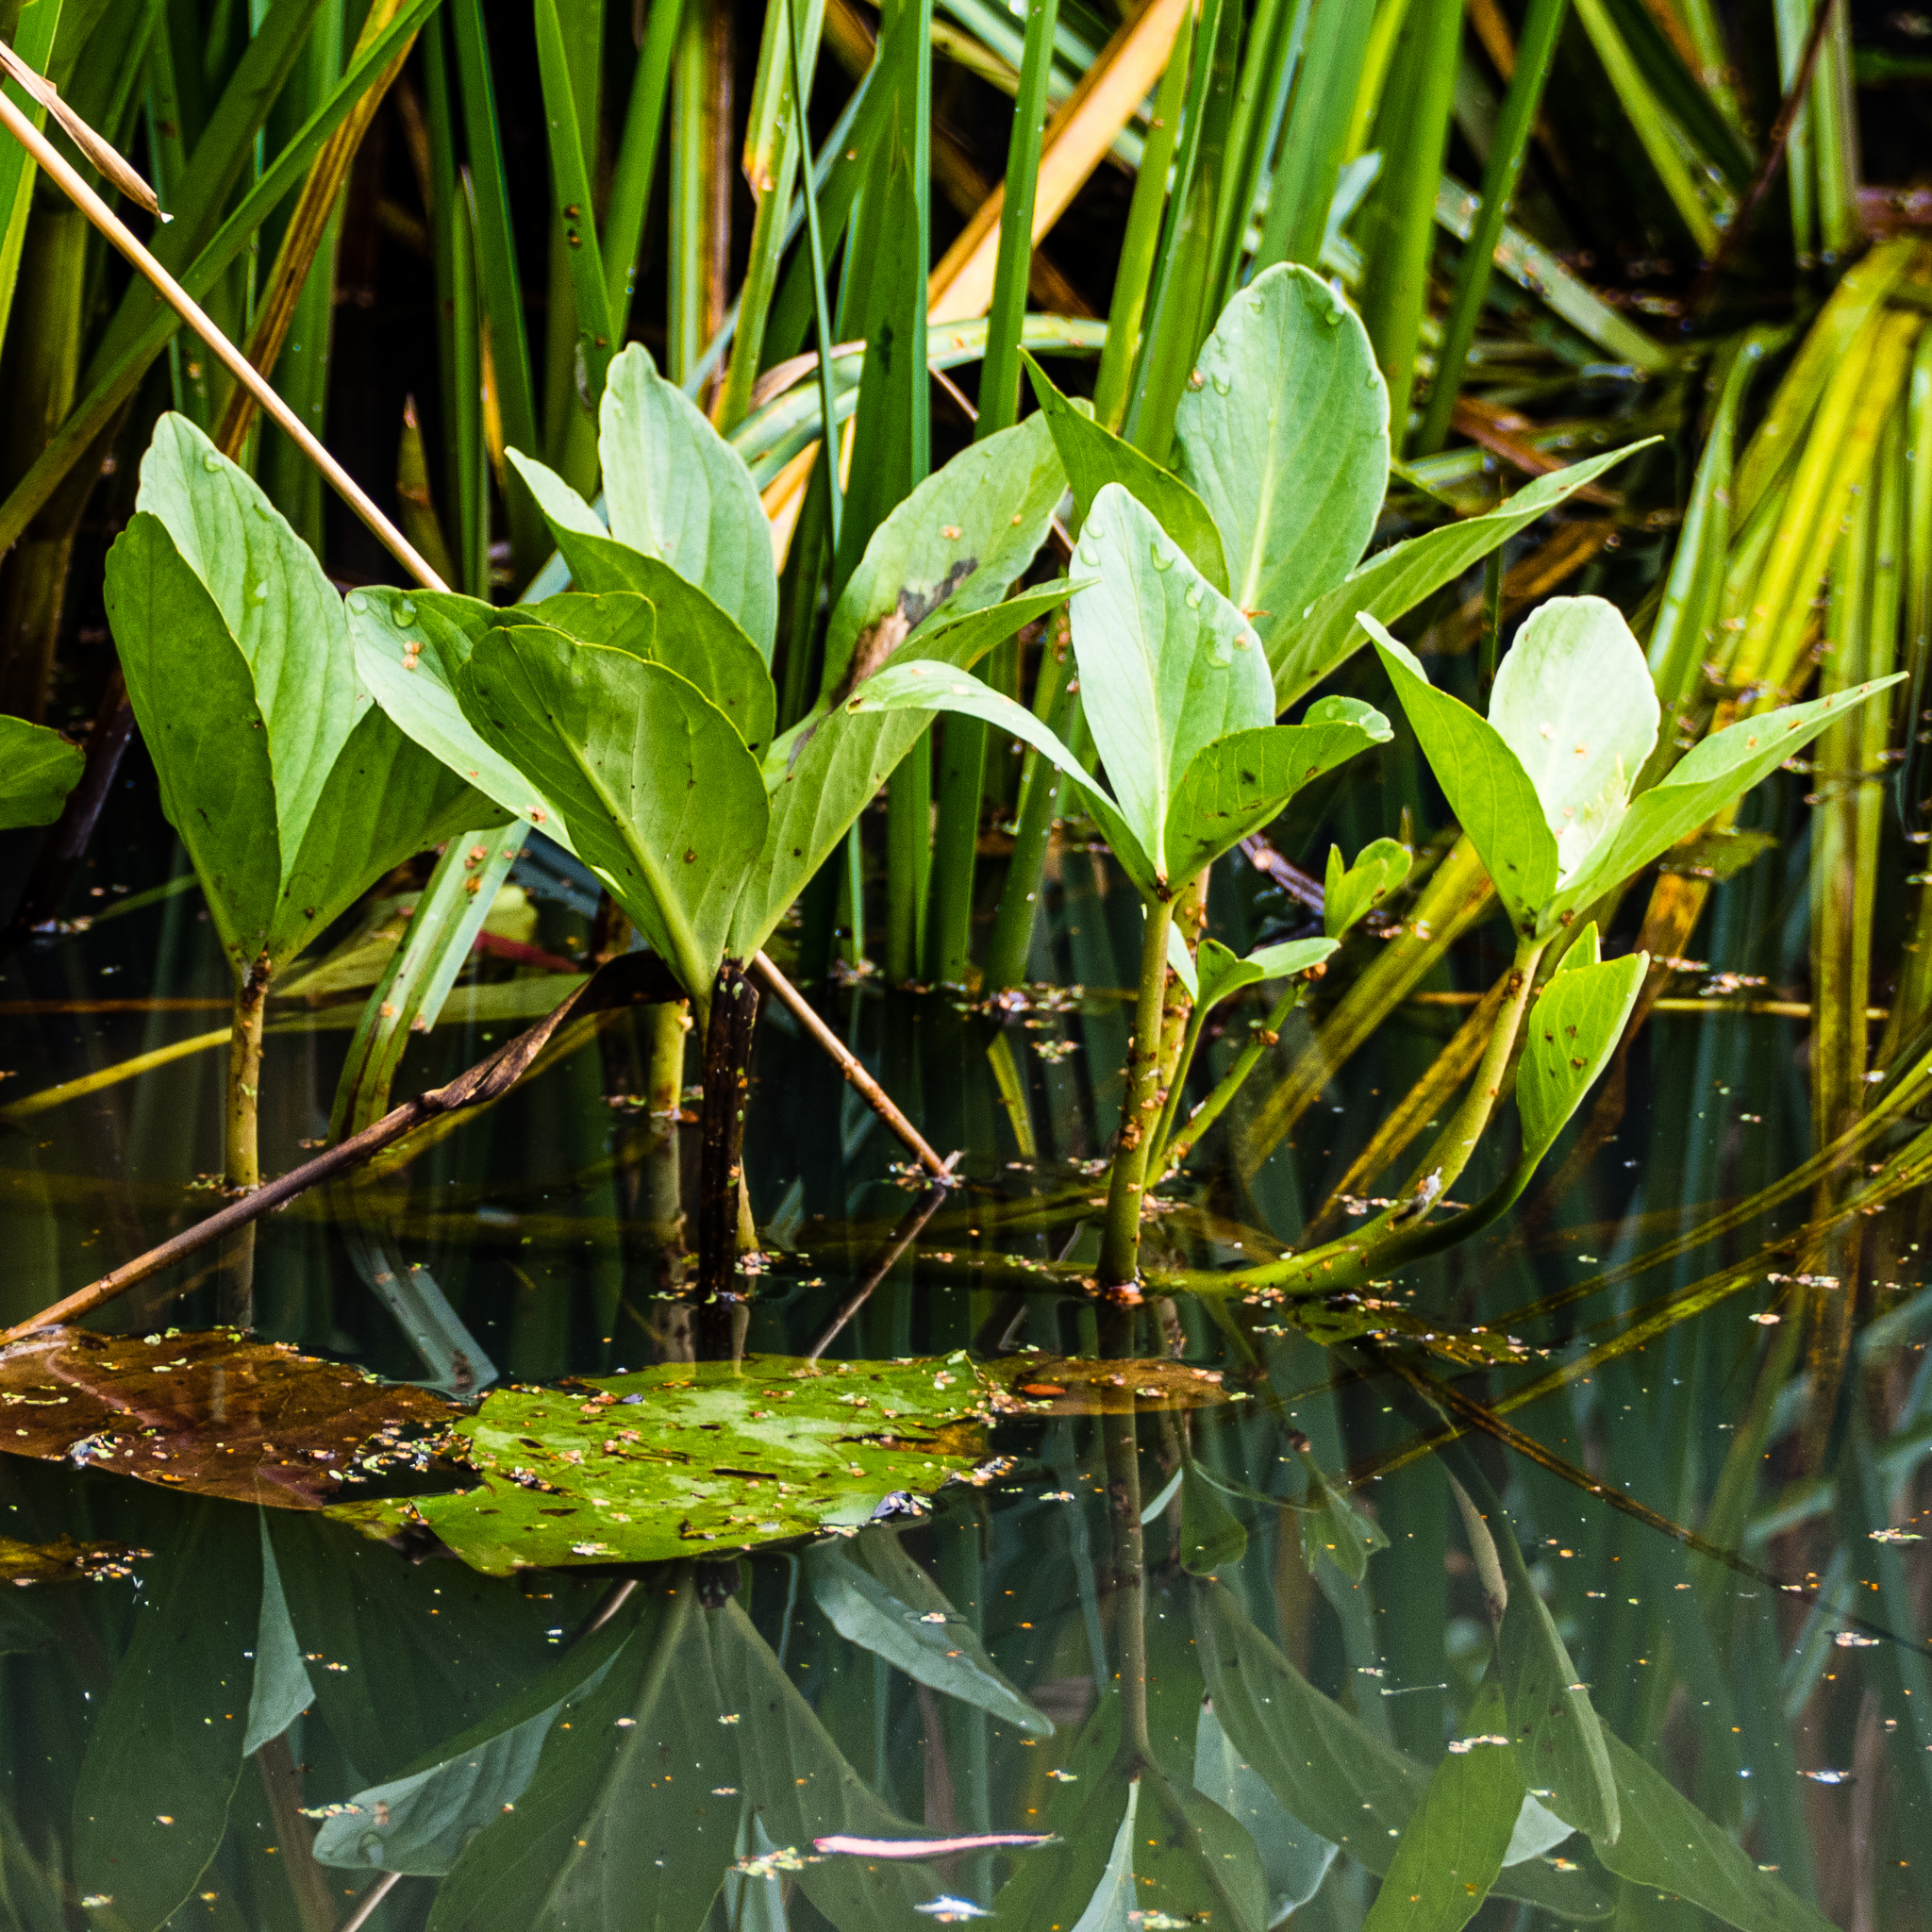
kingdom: Plantae
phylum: Tracheophyta
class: Magnoliopsida
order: Asterales
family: Menyanthaceae
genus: Menyanthes
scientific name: Menyanthes trifoliata
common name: Bogbean
